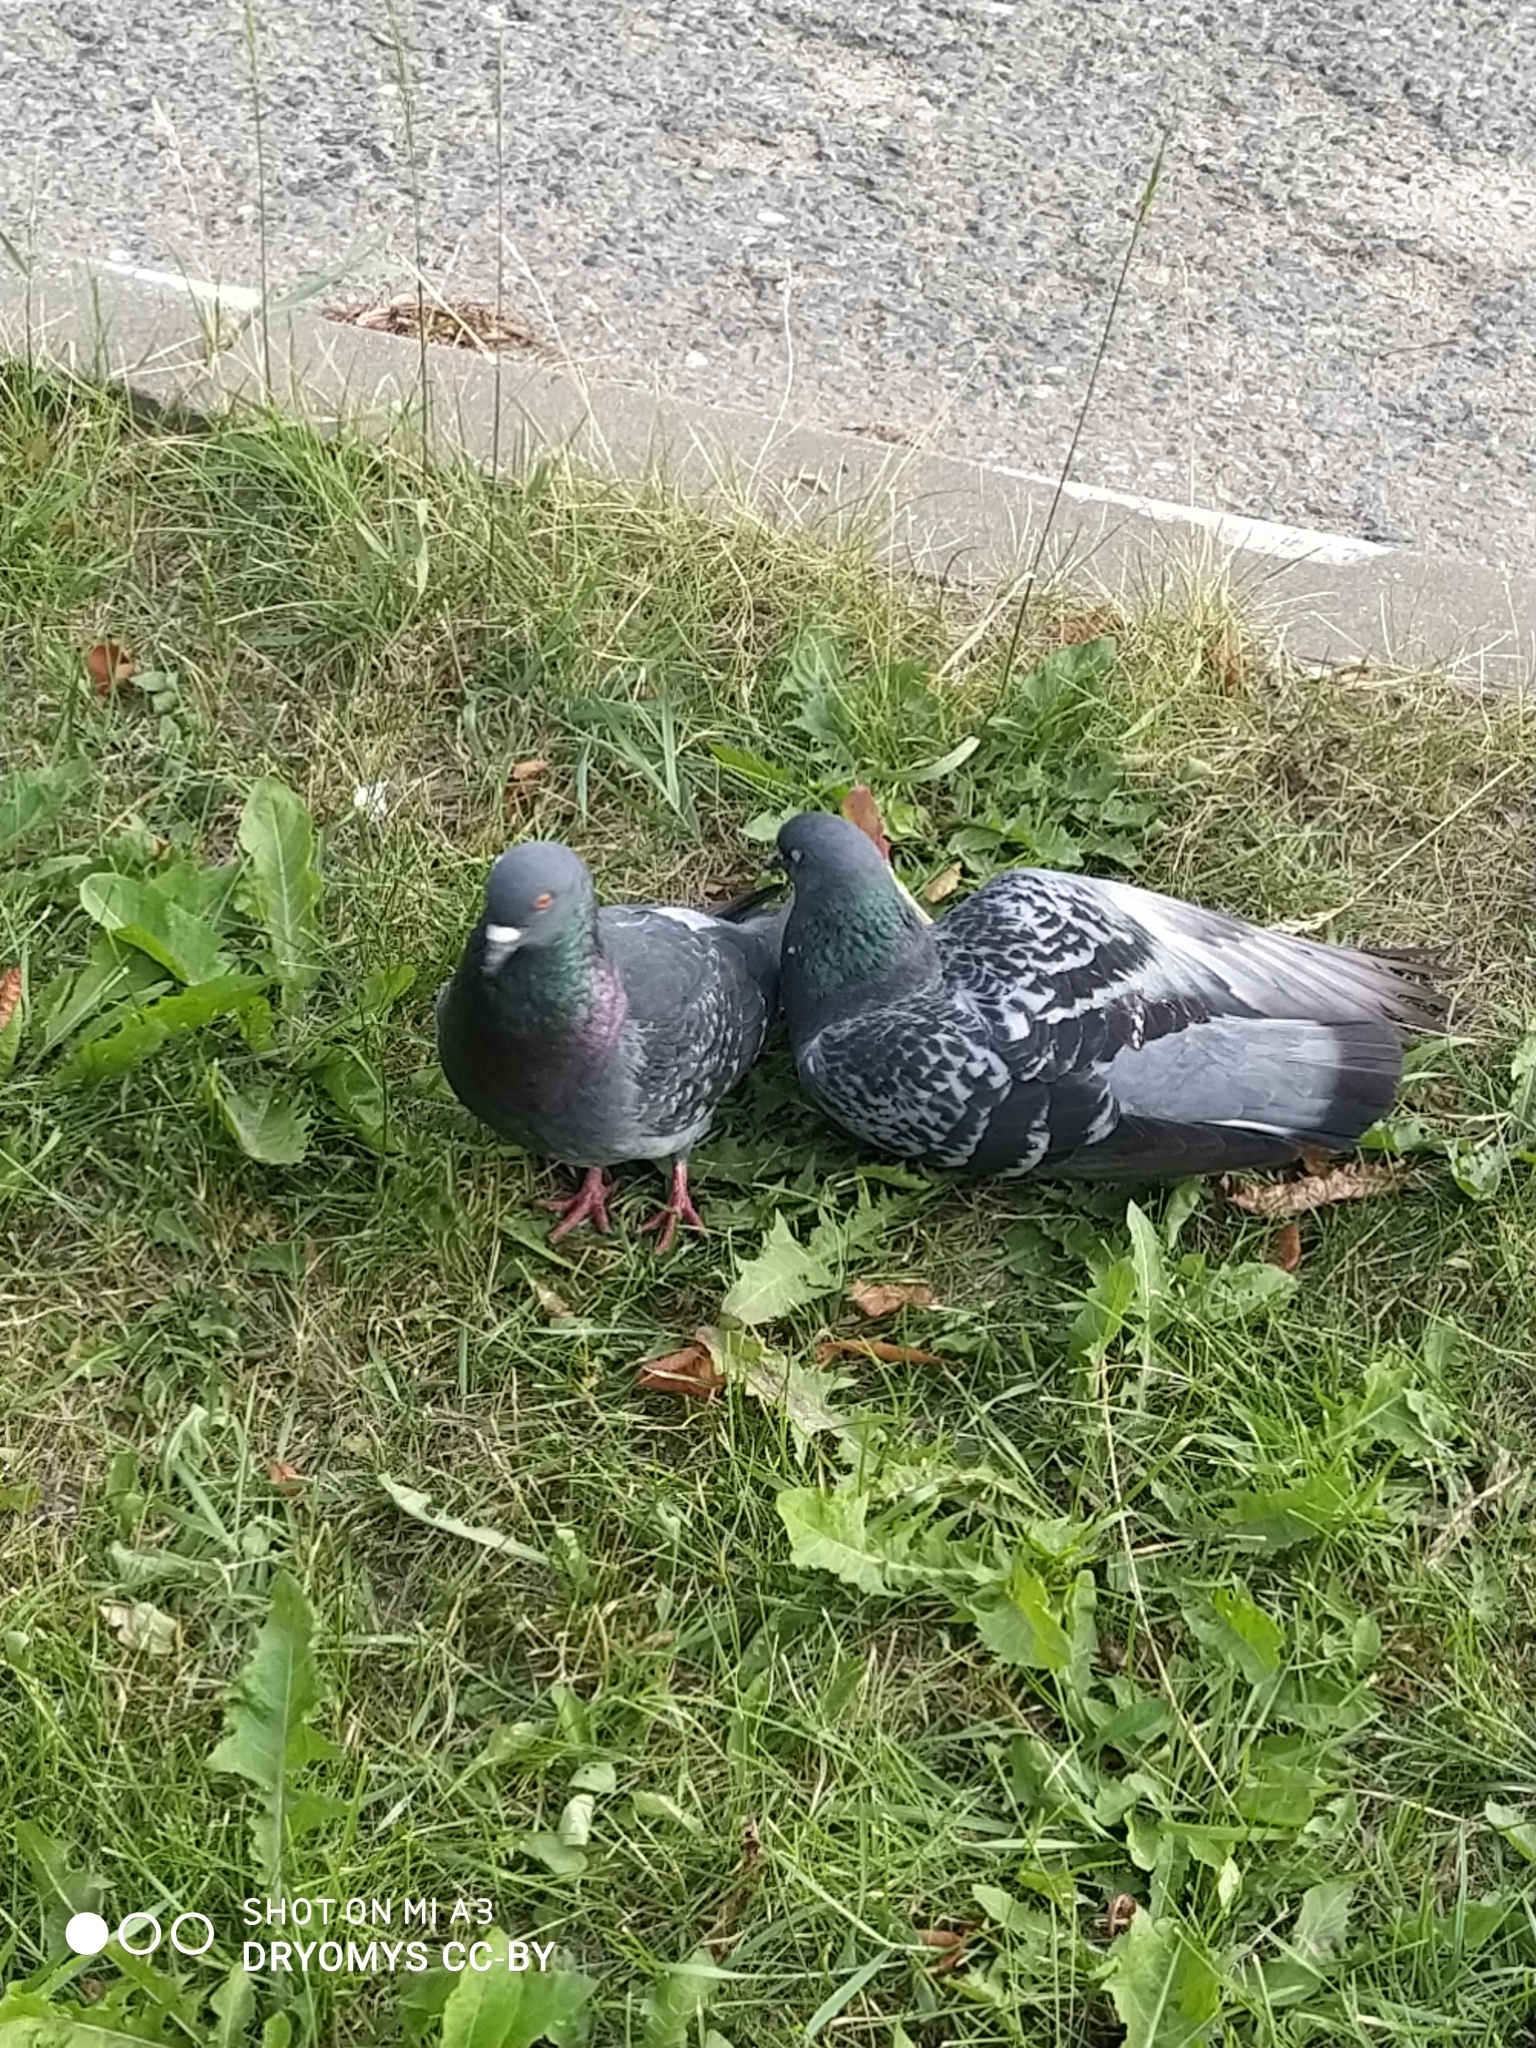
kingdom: Animalia
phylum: Chordata
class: Aves
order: Columbiformes
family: Columbidae
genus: Columba
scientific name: Columba livia
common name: Rock pigeon
